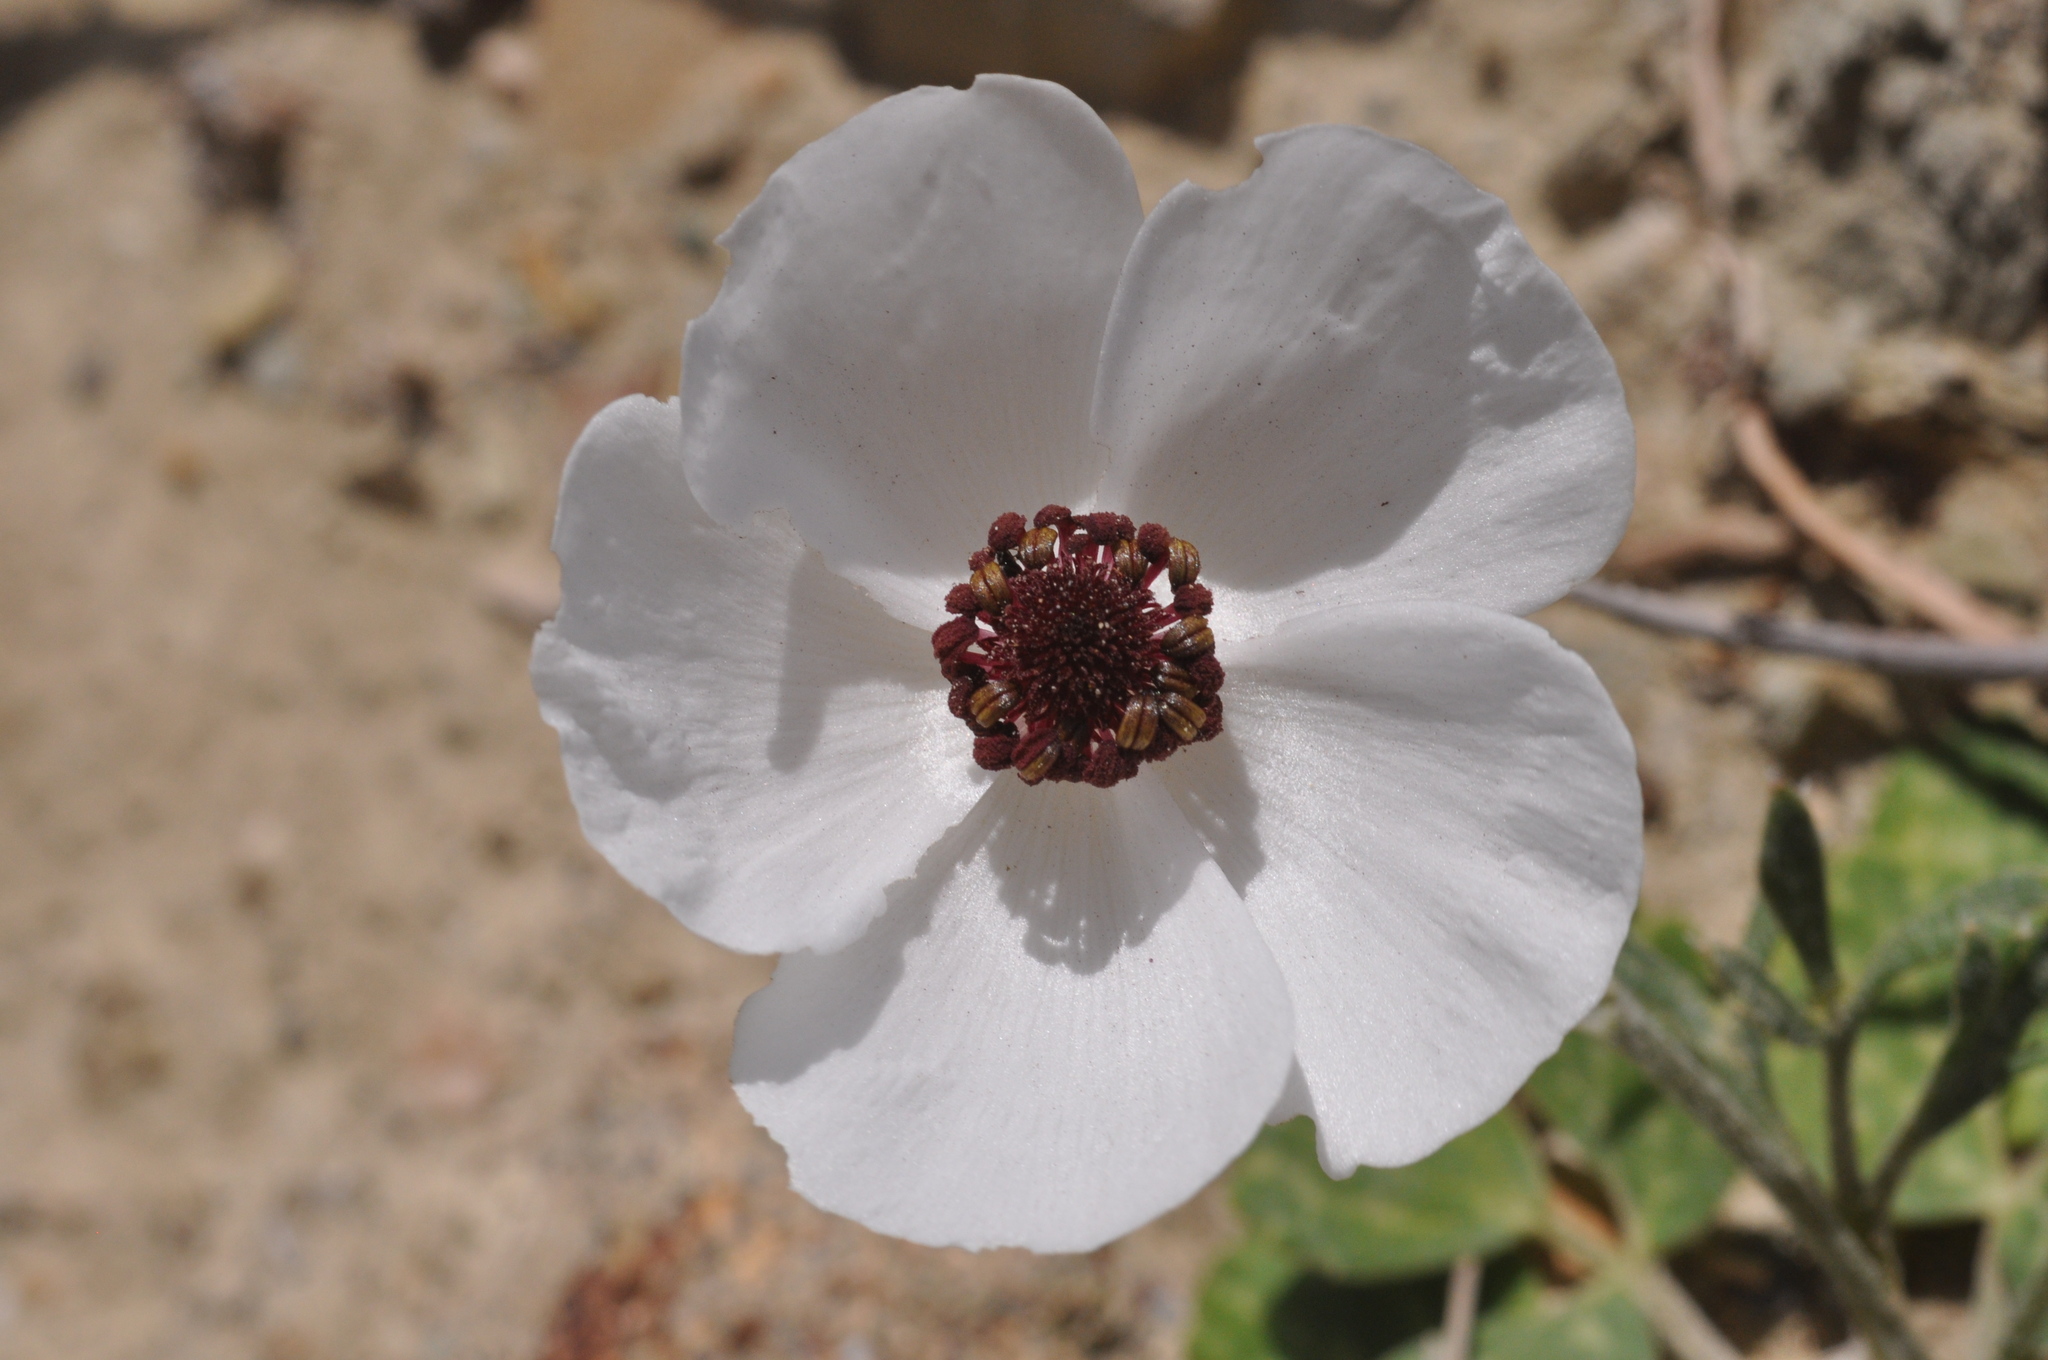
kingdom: Plantae
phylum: Tracheophyta
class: Magnoliopsida
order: Ranunculales
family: Ranunculaceae
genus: Ranunculus
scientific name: Ranunculus asiaticus
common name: Persian buttercup
